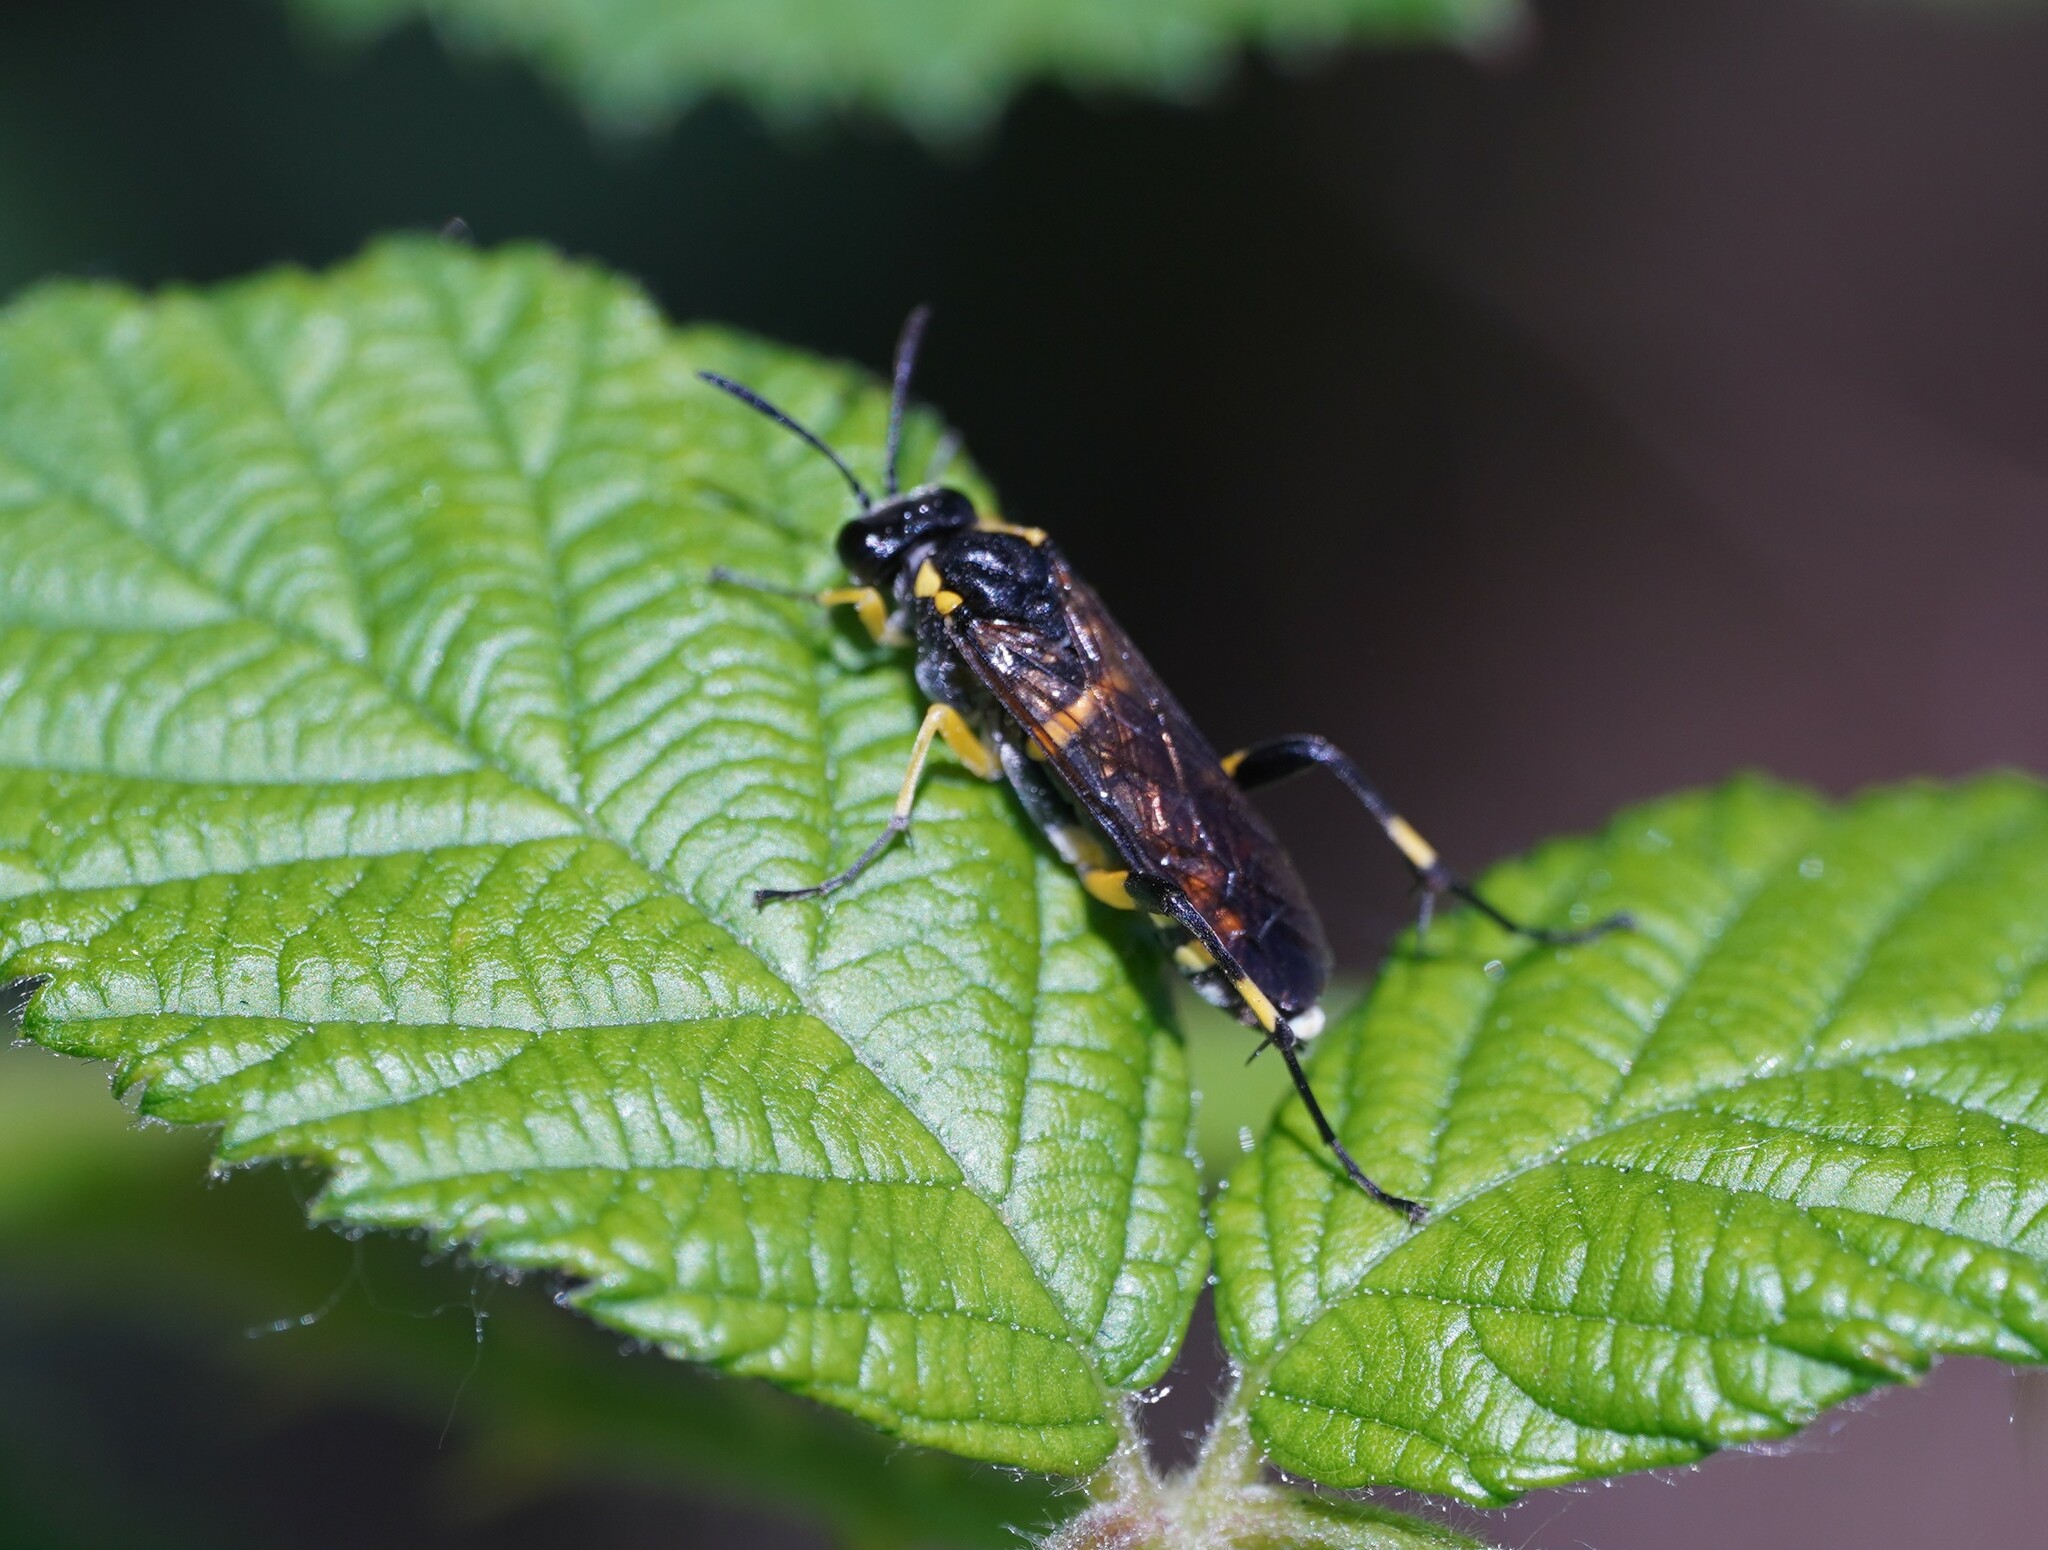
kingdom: Animalia
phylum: Arthropoda
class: Insecta
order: Hymenoptera
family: Tenthredinidae
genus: Macrophya
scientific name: Macrophya montana
